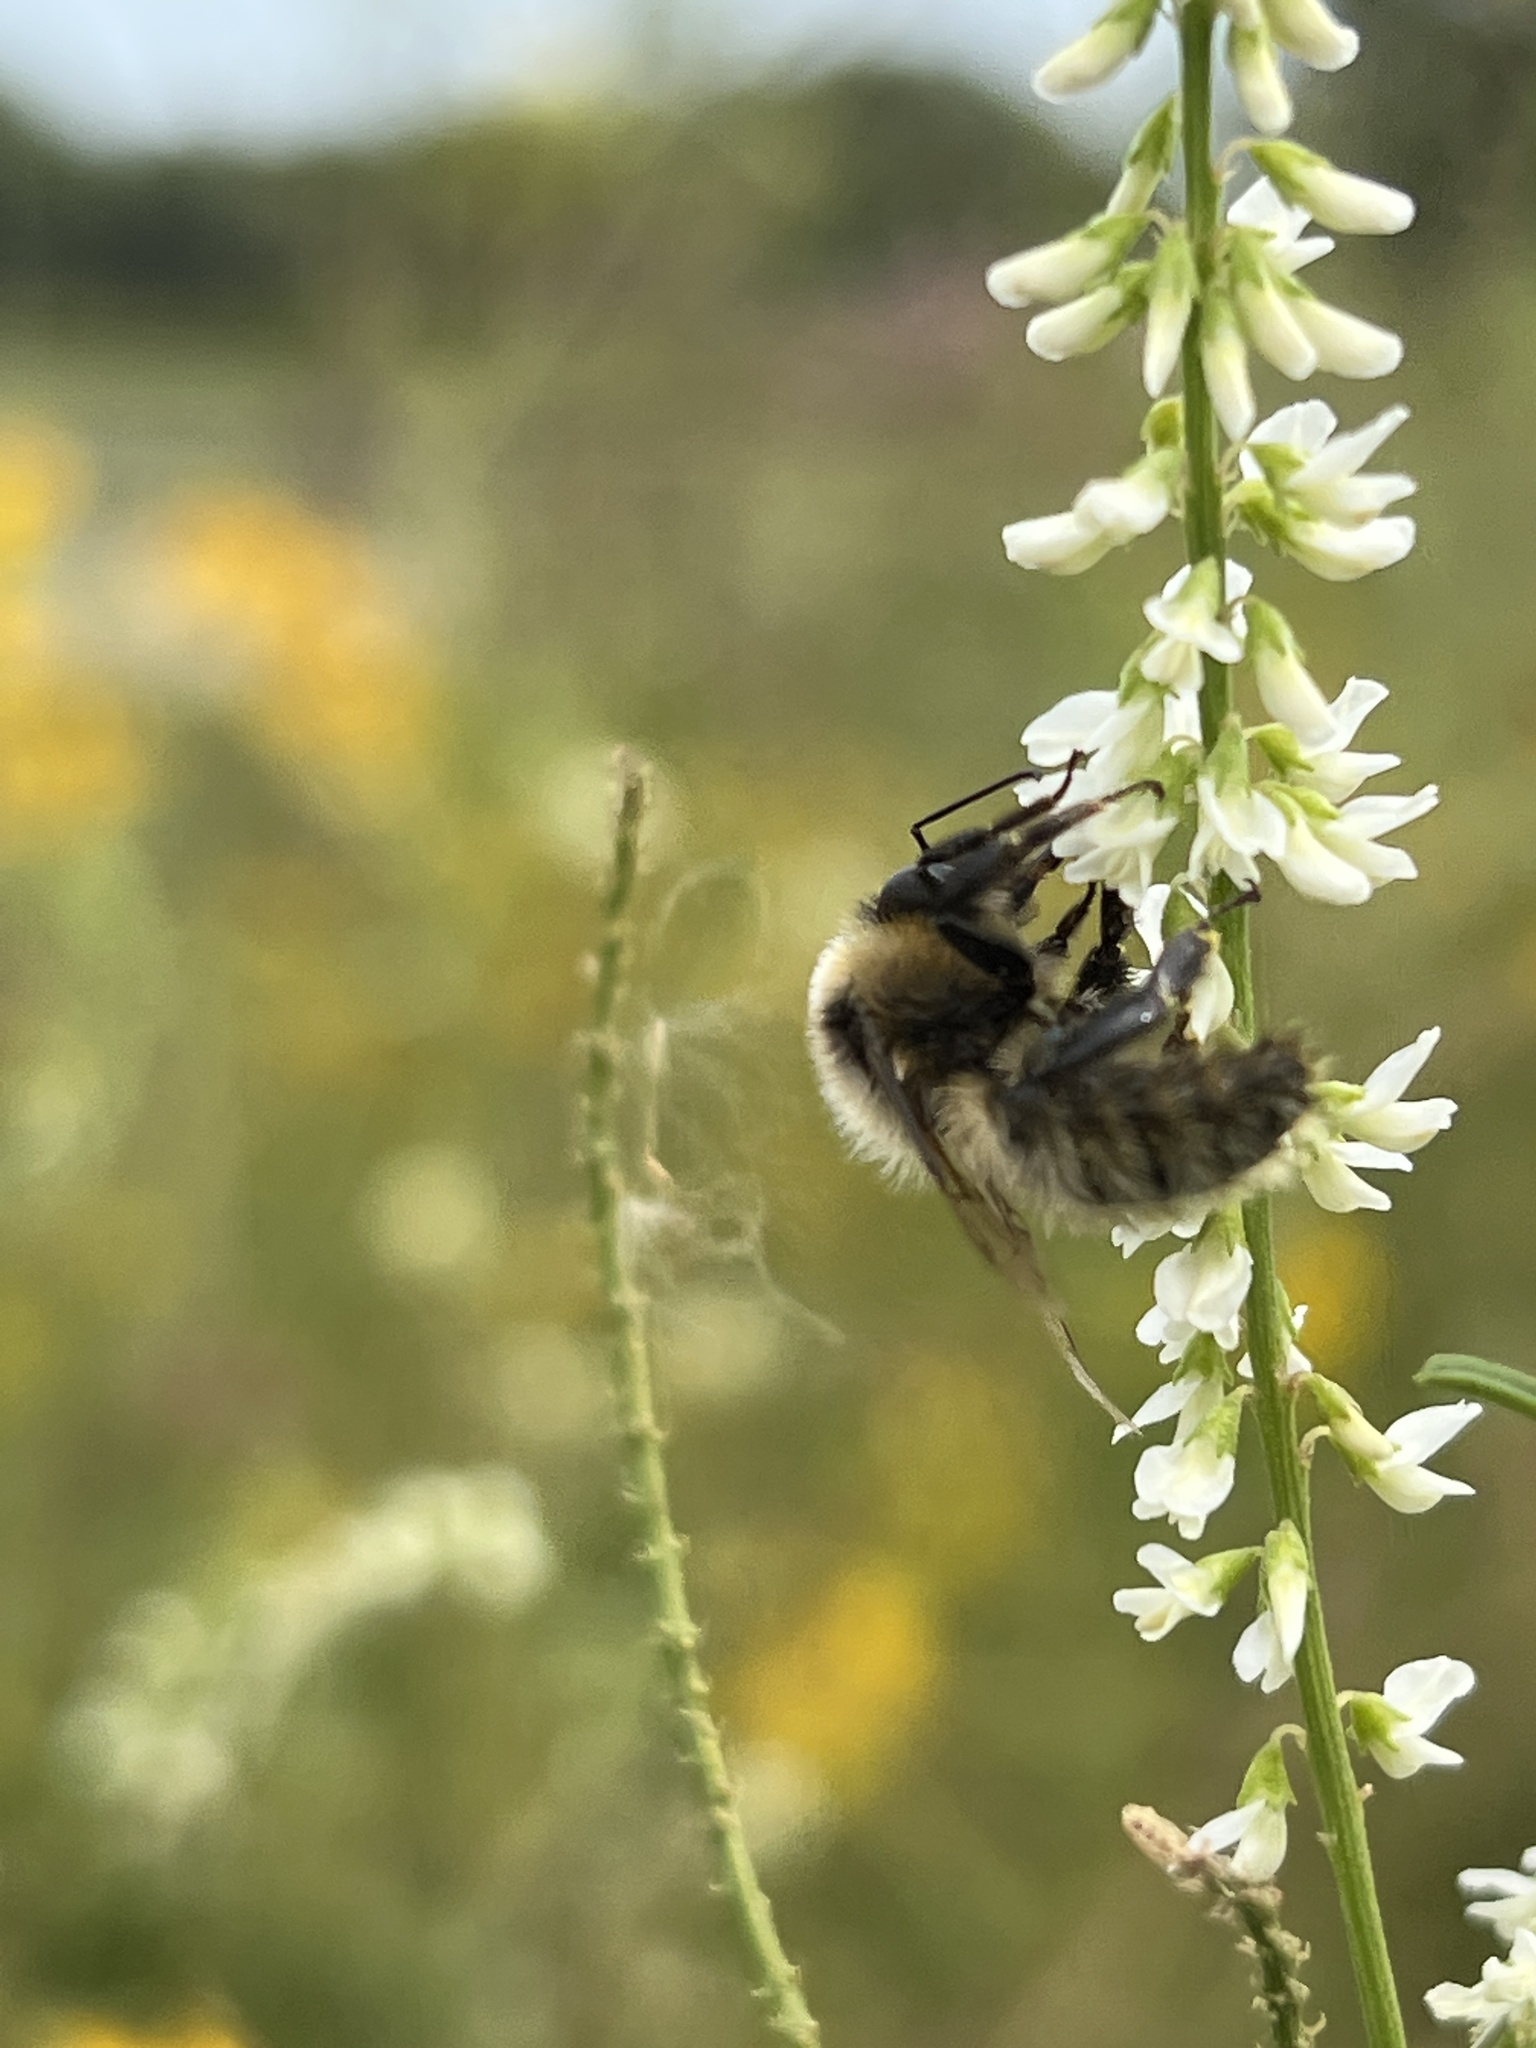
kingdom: Animalia
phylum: Arthropoda
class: Insecta
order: Hymenoptera
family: Apidae
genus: Bombus
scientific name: Bombus rufocinctus
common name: Red-belted bumble bee
